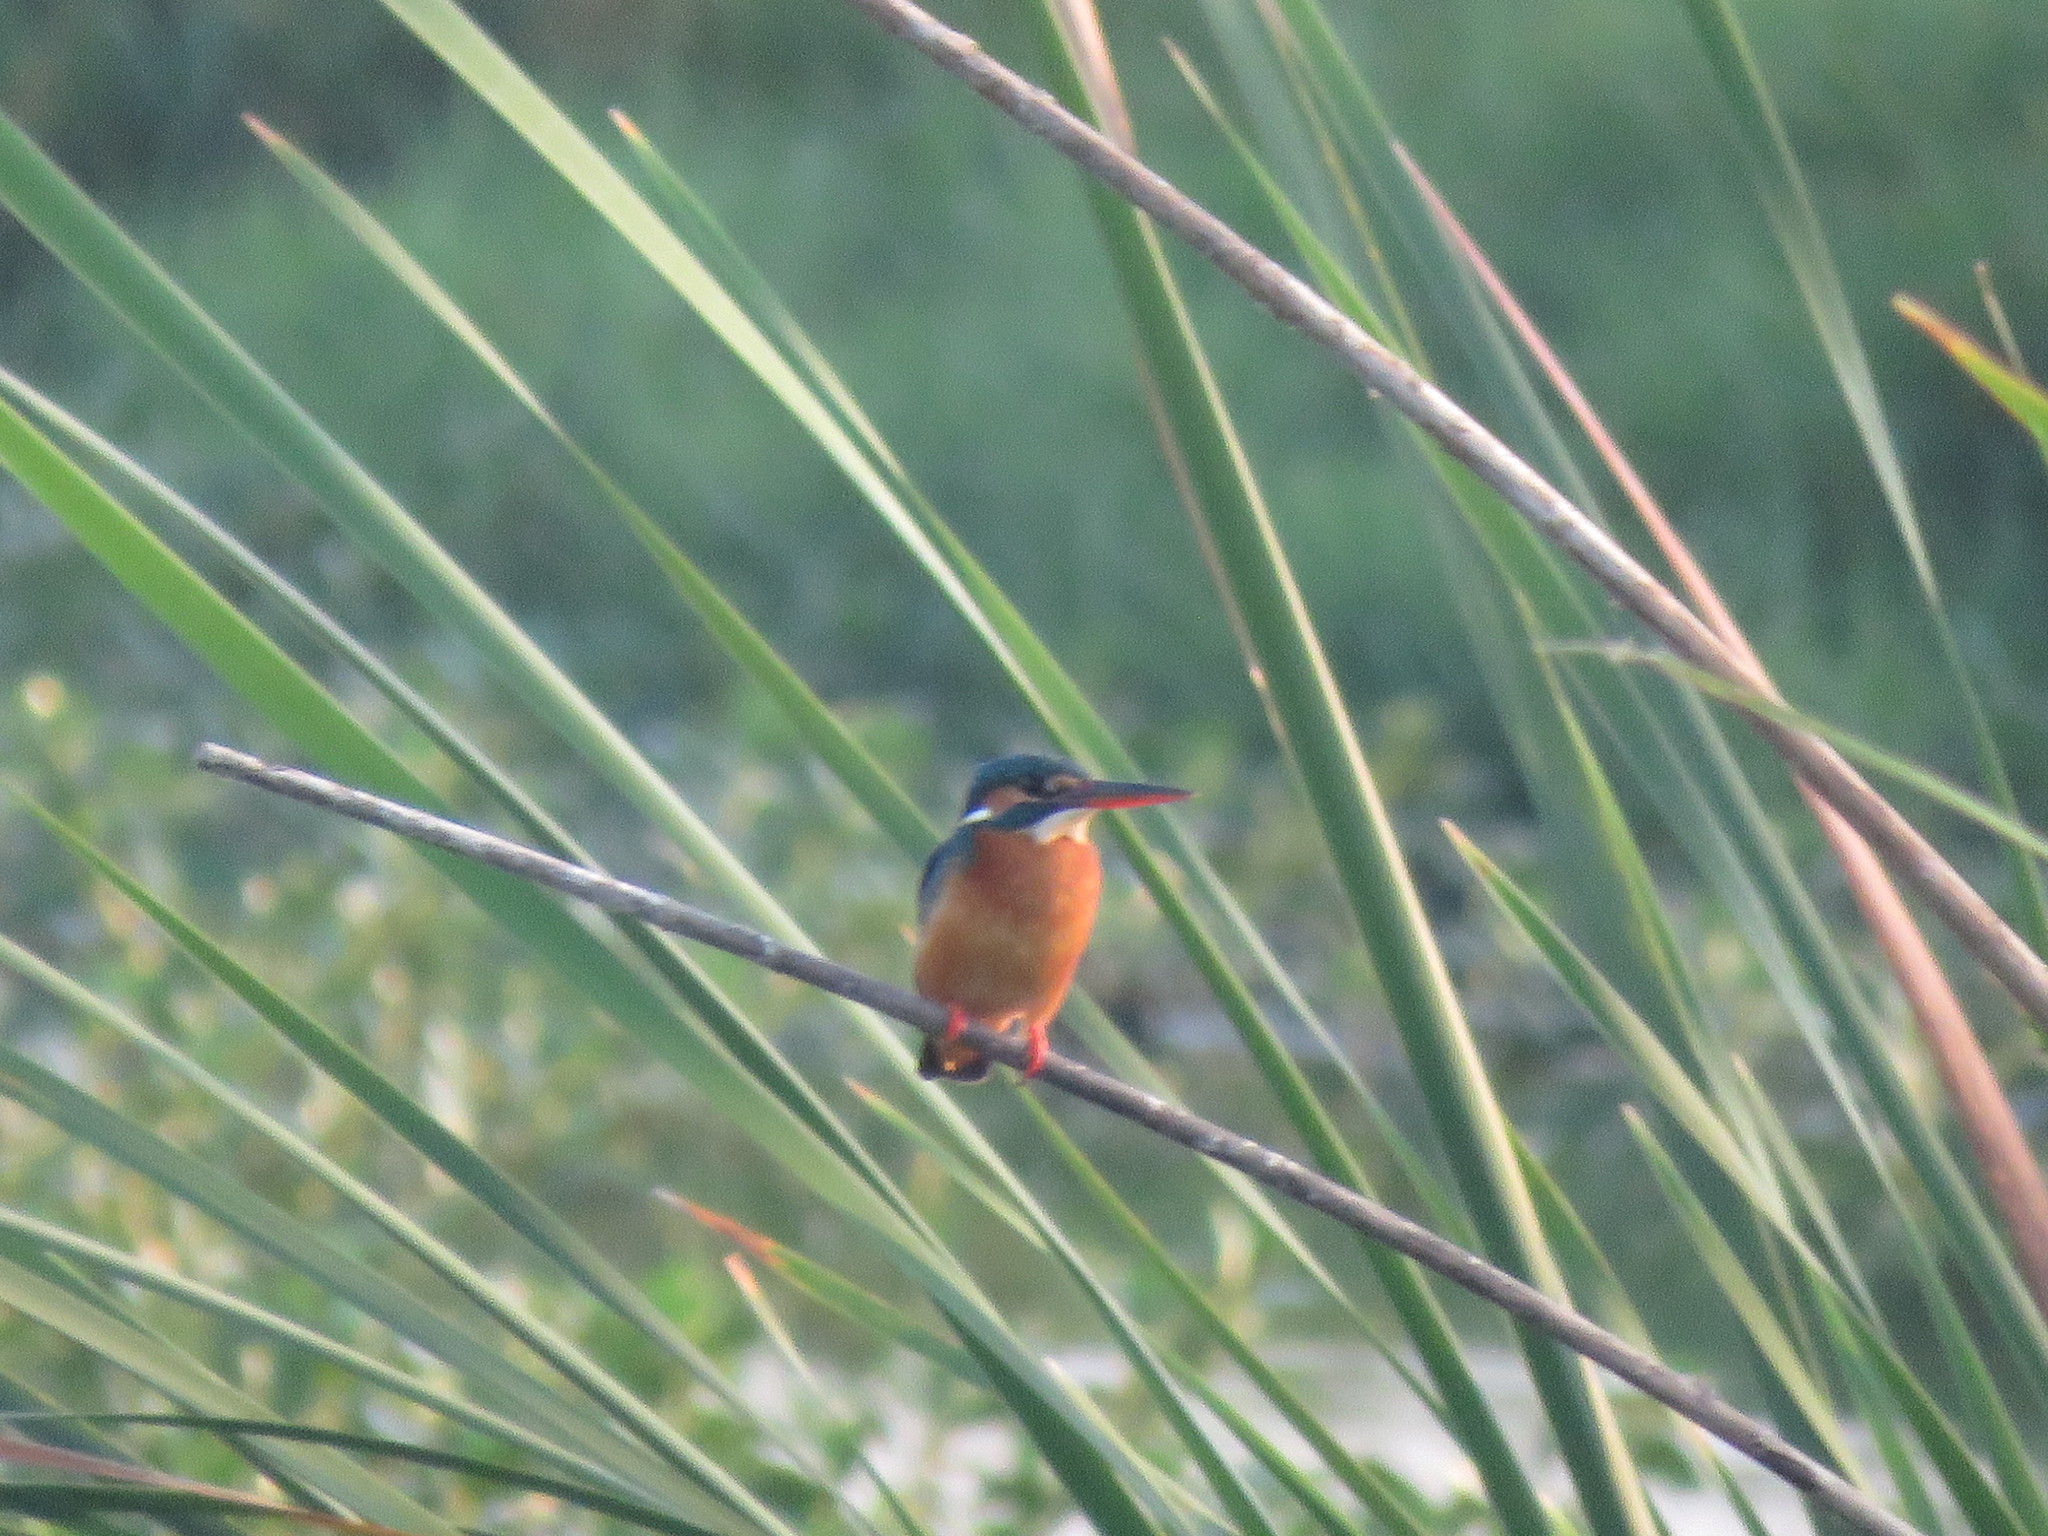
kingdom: Animalia
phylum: Chordata
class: Aves
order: Coraciiformes
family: Alcedinidae
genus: Alcedo
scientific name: Alcedo atthis
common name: Common kingfisher
